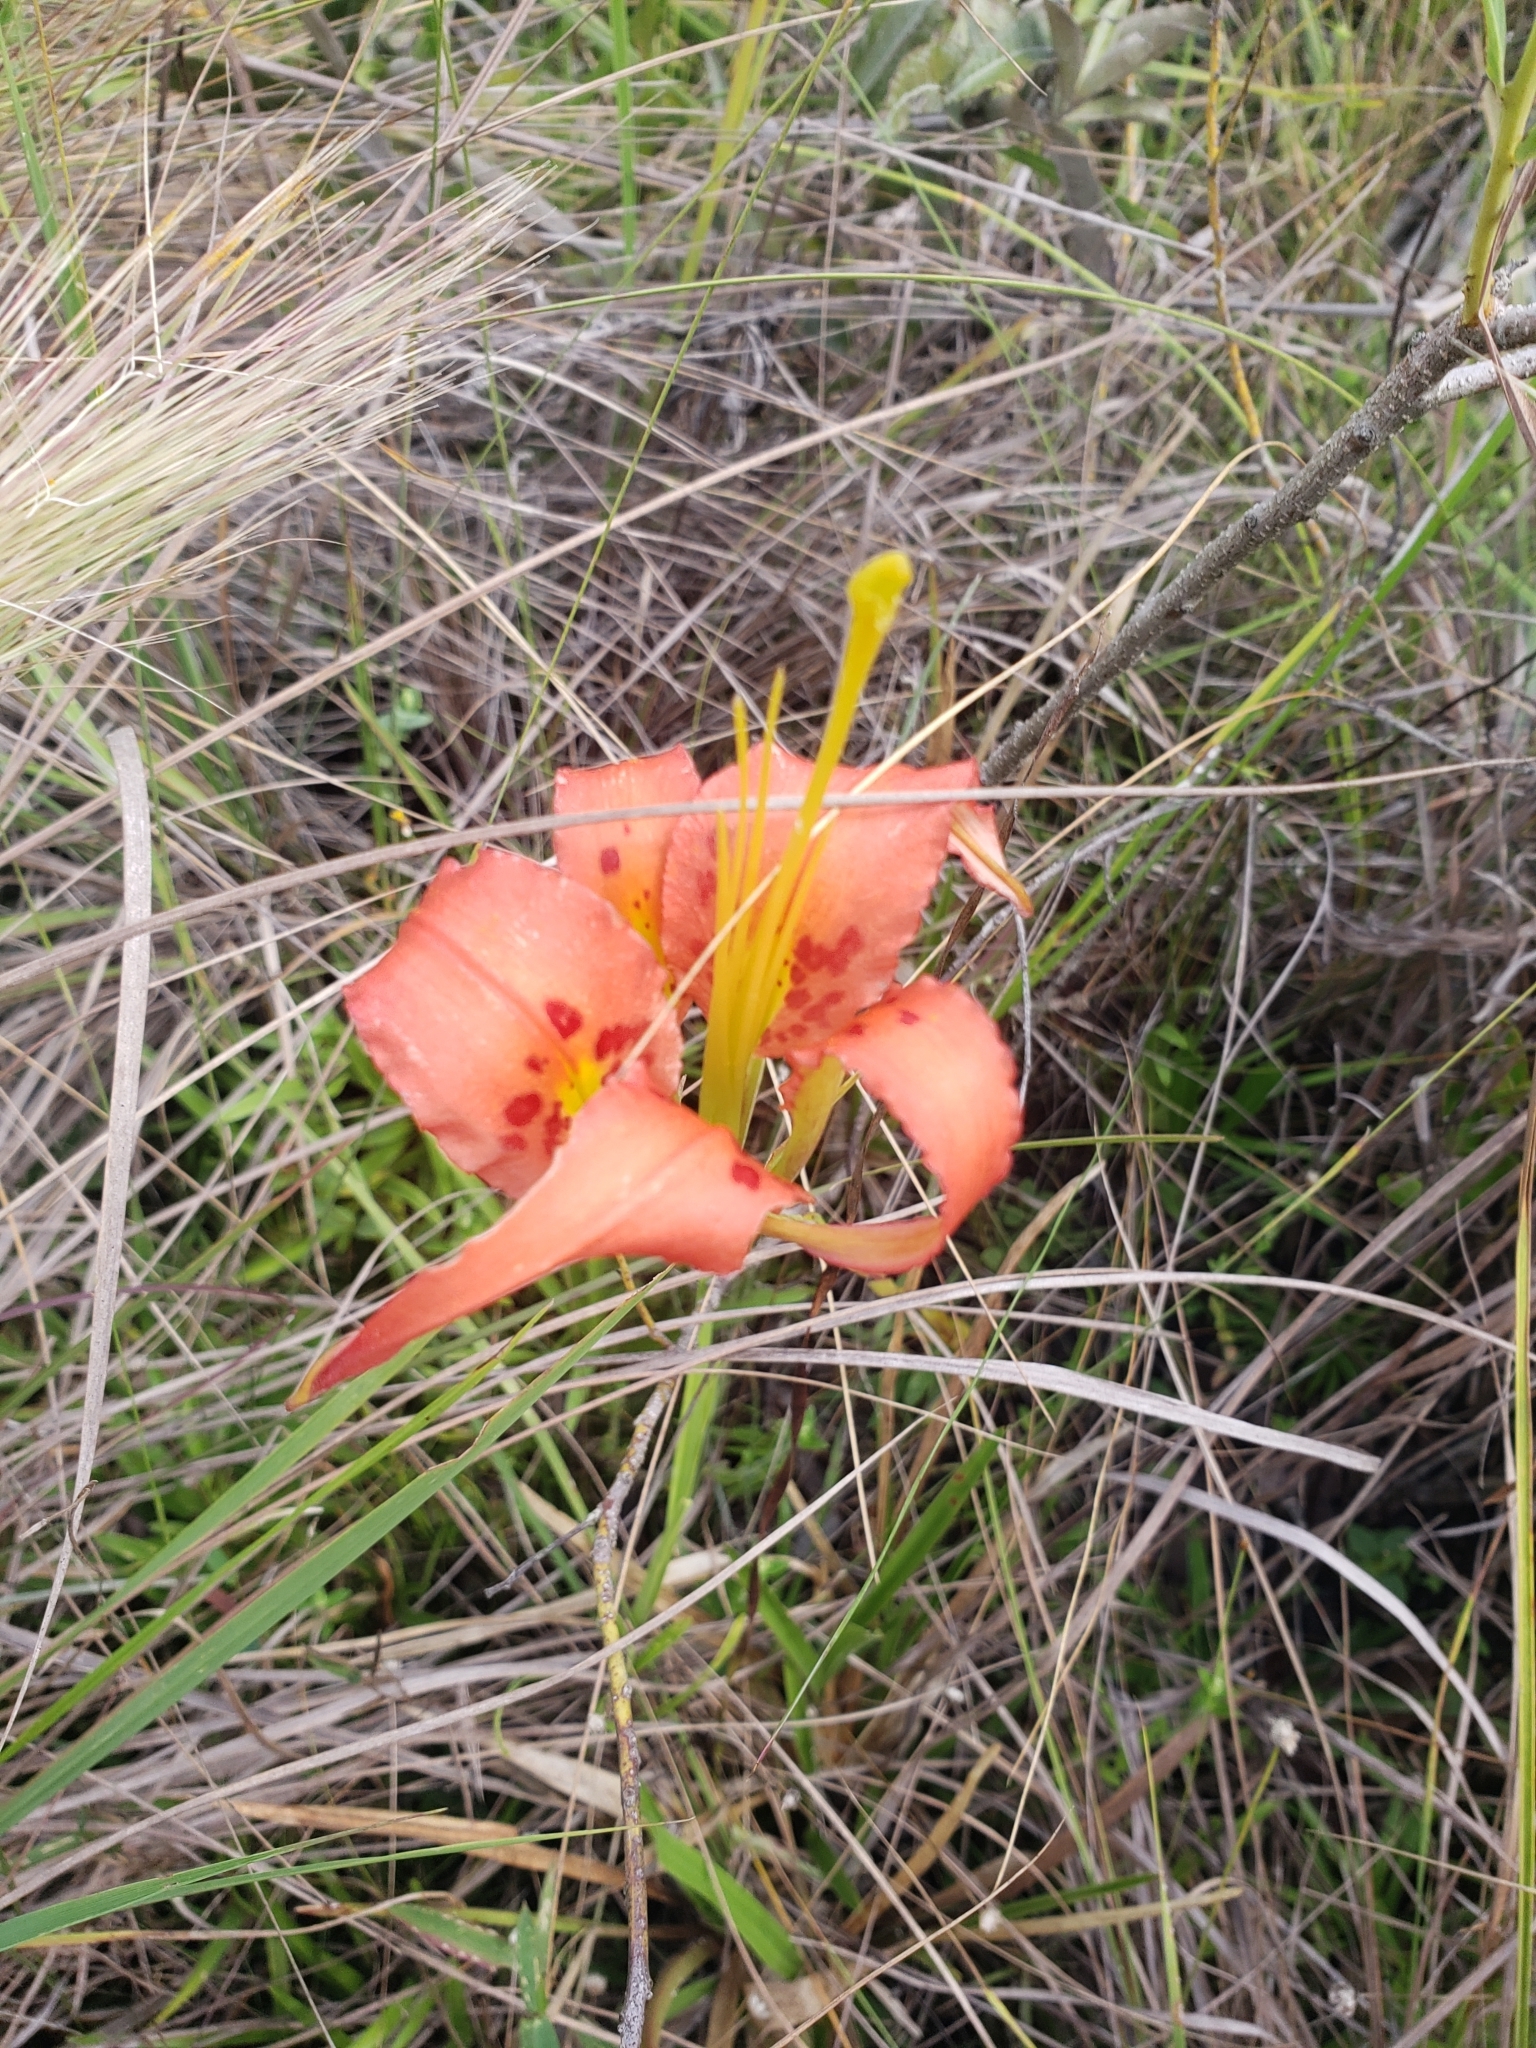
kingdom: Plantae
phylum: Tracheophyta
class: Liliopsida
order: Liliales
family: Liliaceae
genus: Lilium
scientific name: Lilium catesbaei
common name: Catesby's lily
